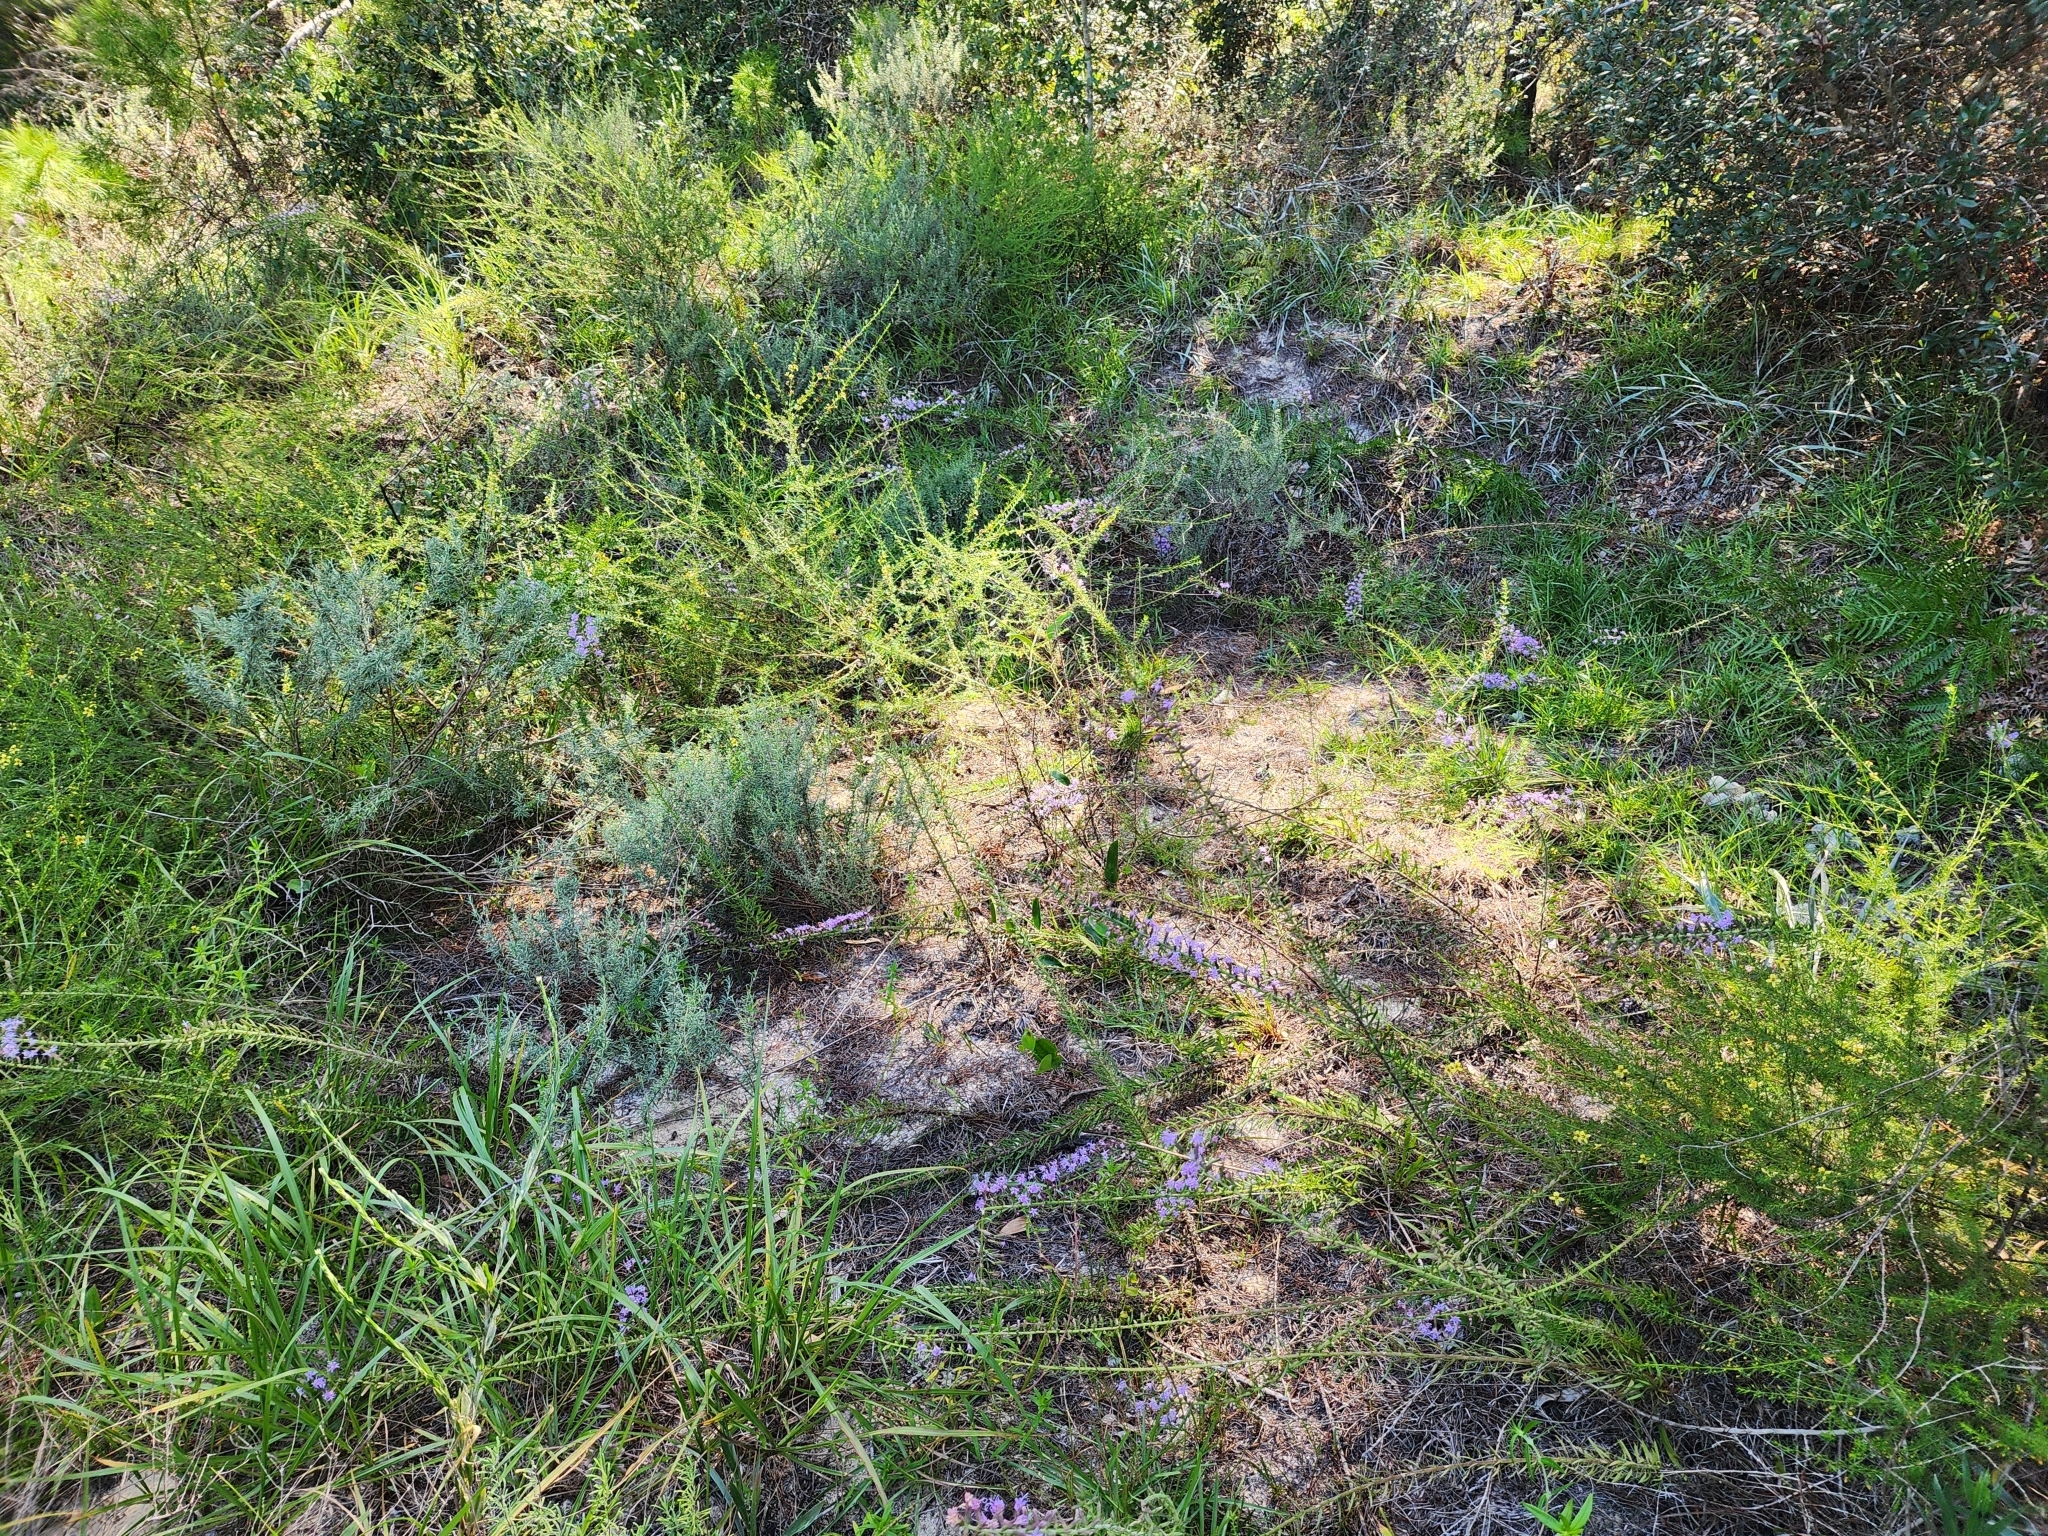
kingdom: Plantae
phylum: Tracheophyta
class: Magnoliopsida
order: Asterales
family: Asteraceae
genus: Liatris
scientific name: Liatris provincialis
